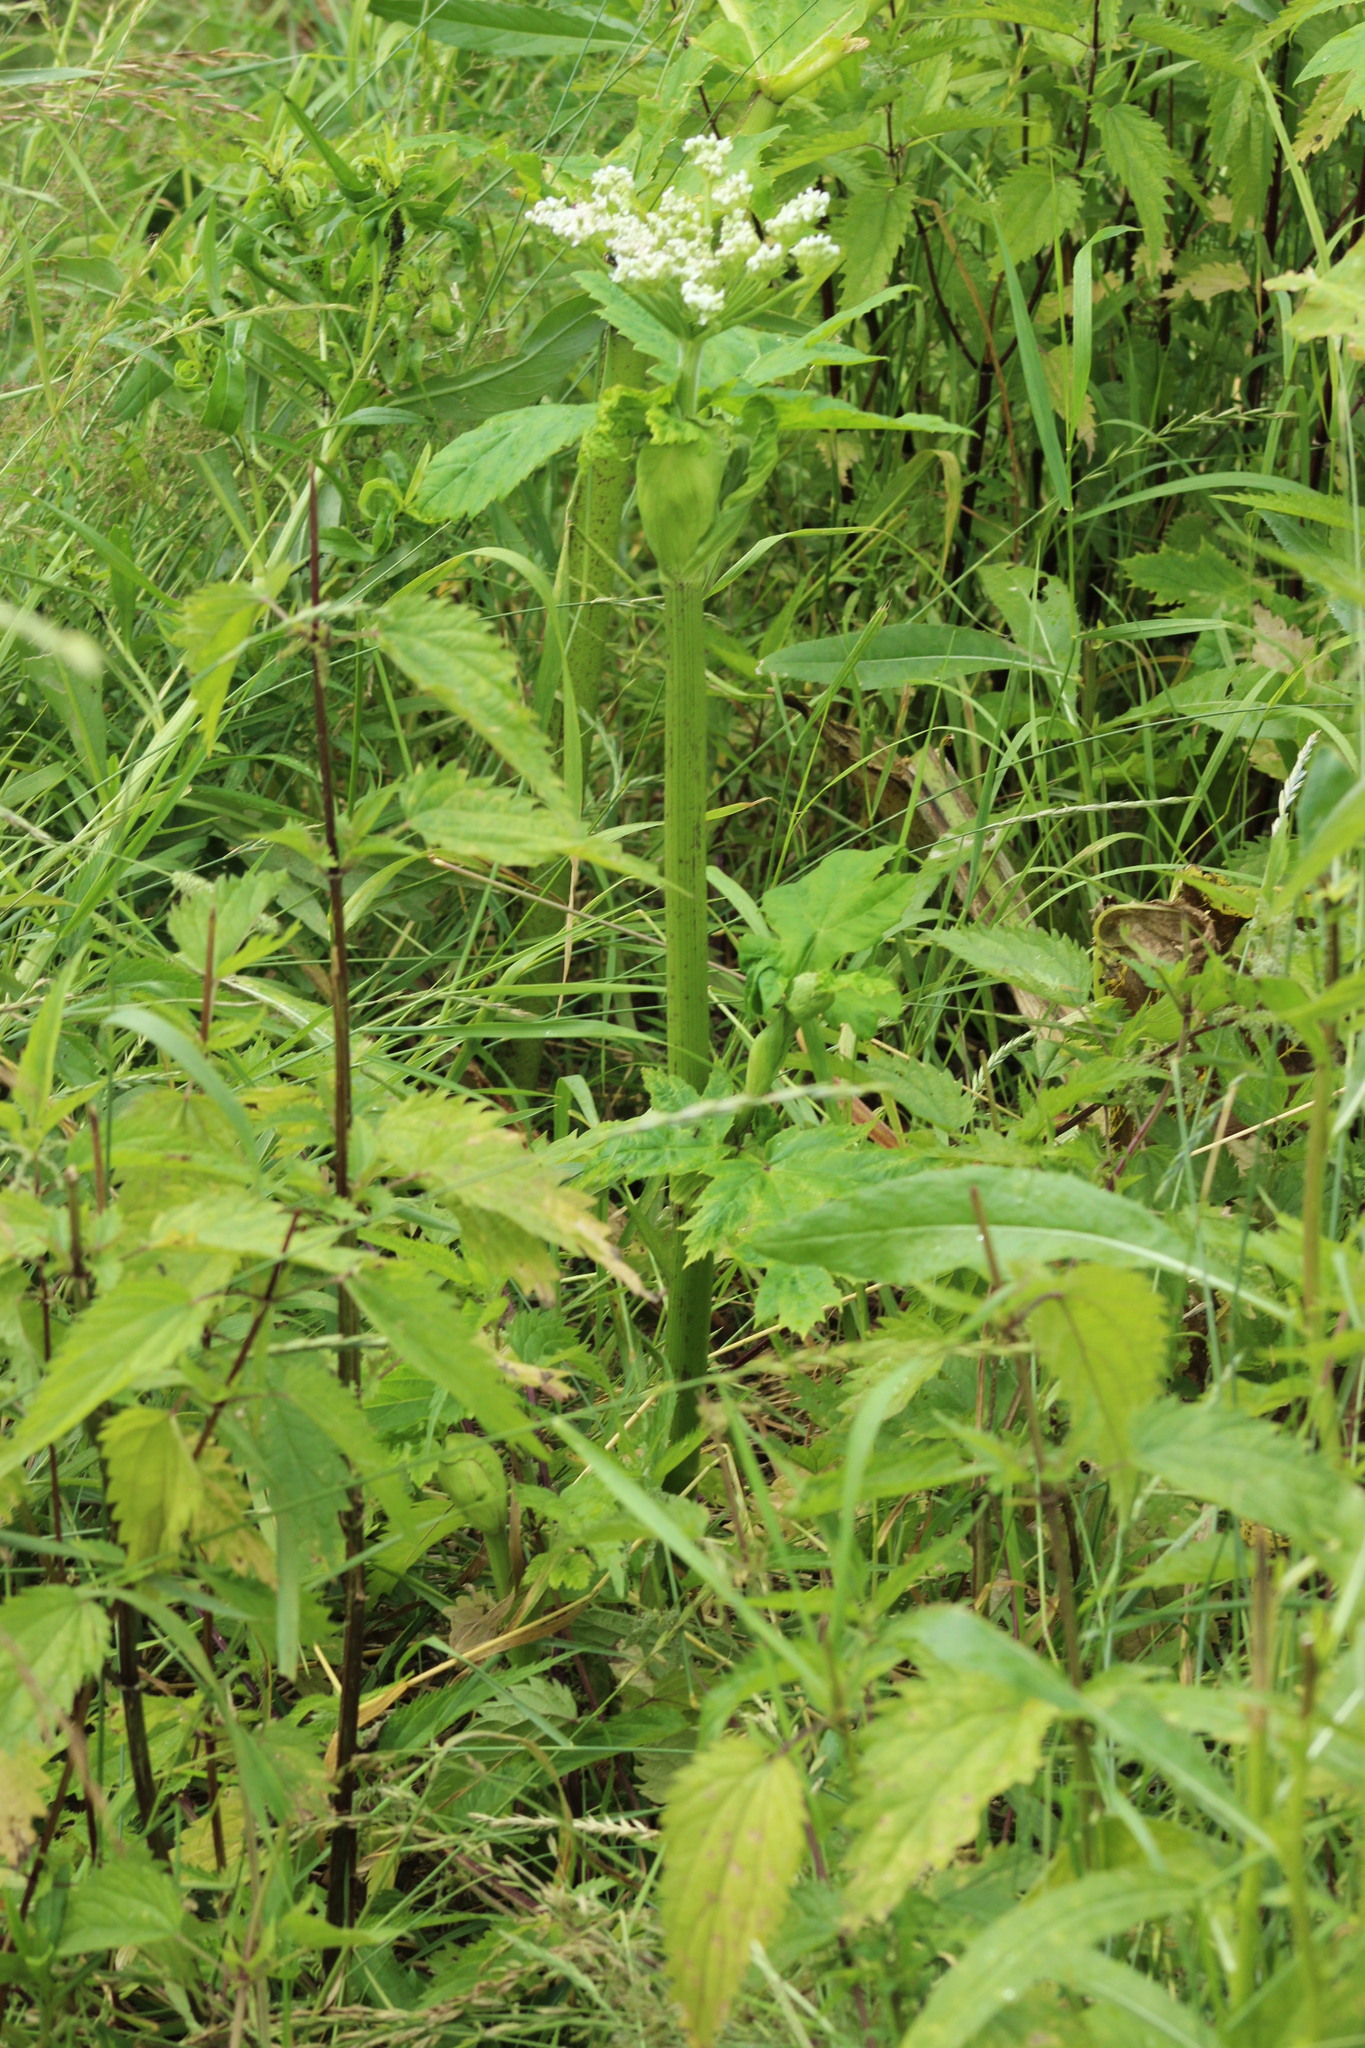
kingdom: Plantae
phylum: Tracheophyta
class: Magnoliopsida
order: Apiales
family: Apiaceae
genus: Heracleum
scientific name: Heracleum sosnowskyi
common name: Sosnowsky's hogweed
